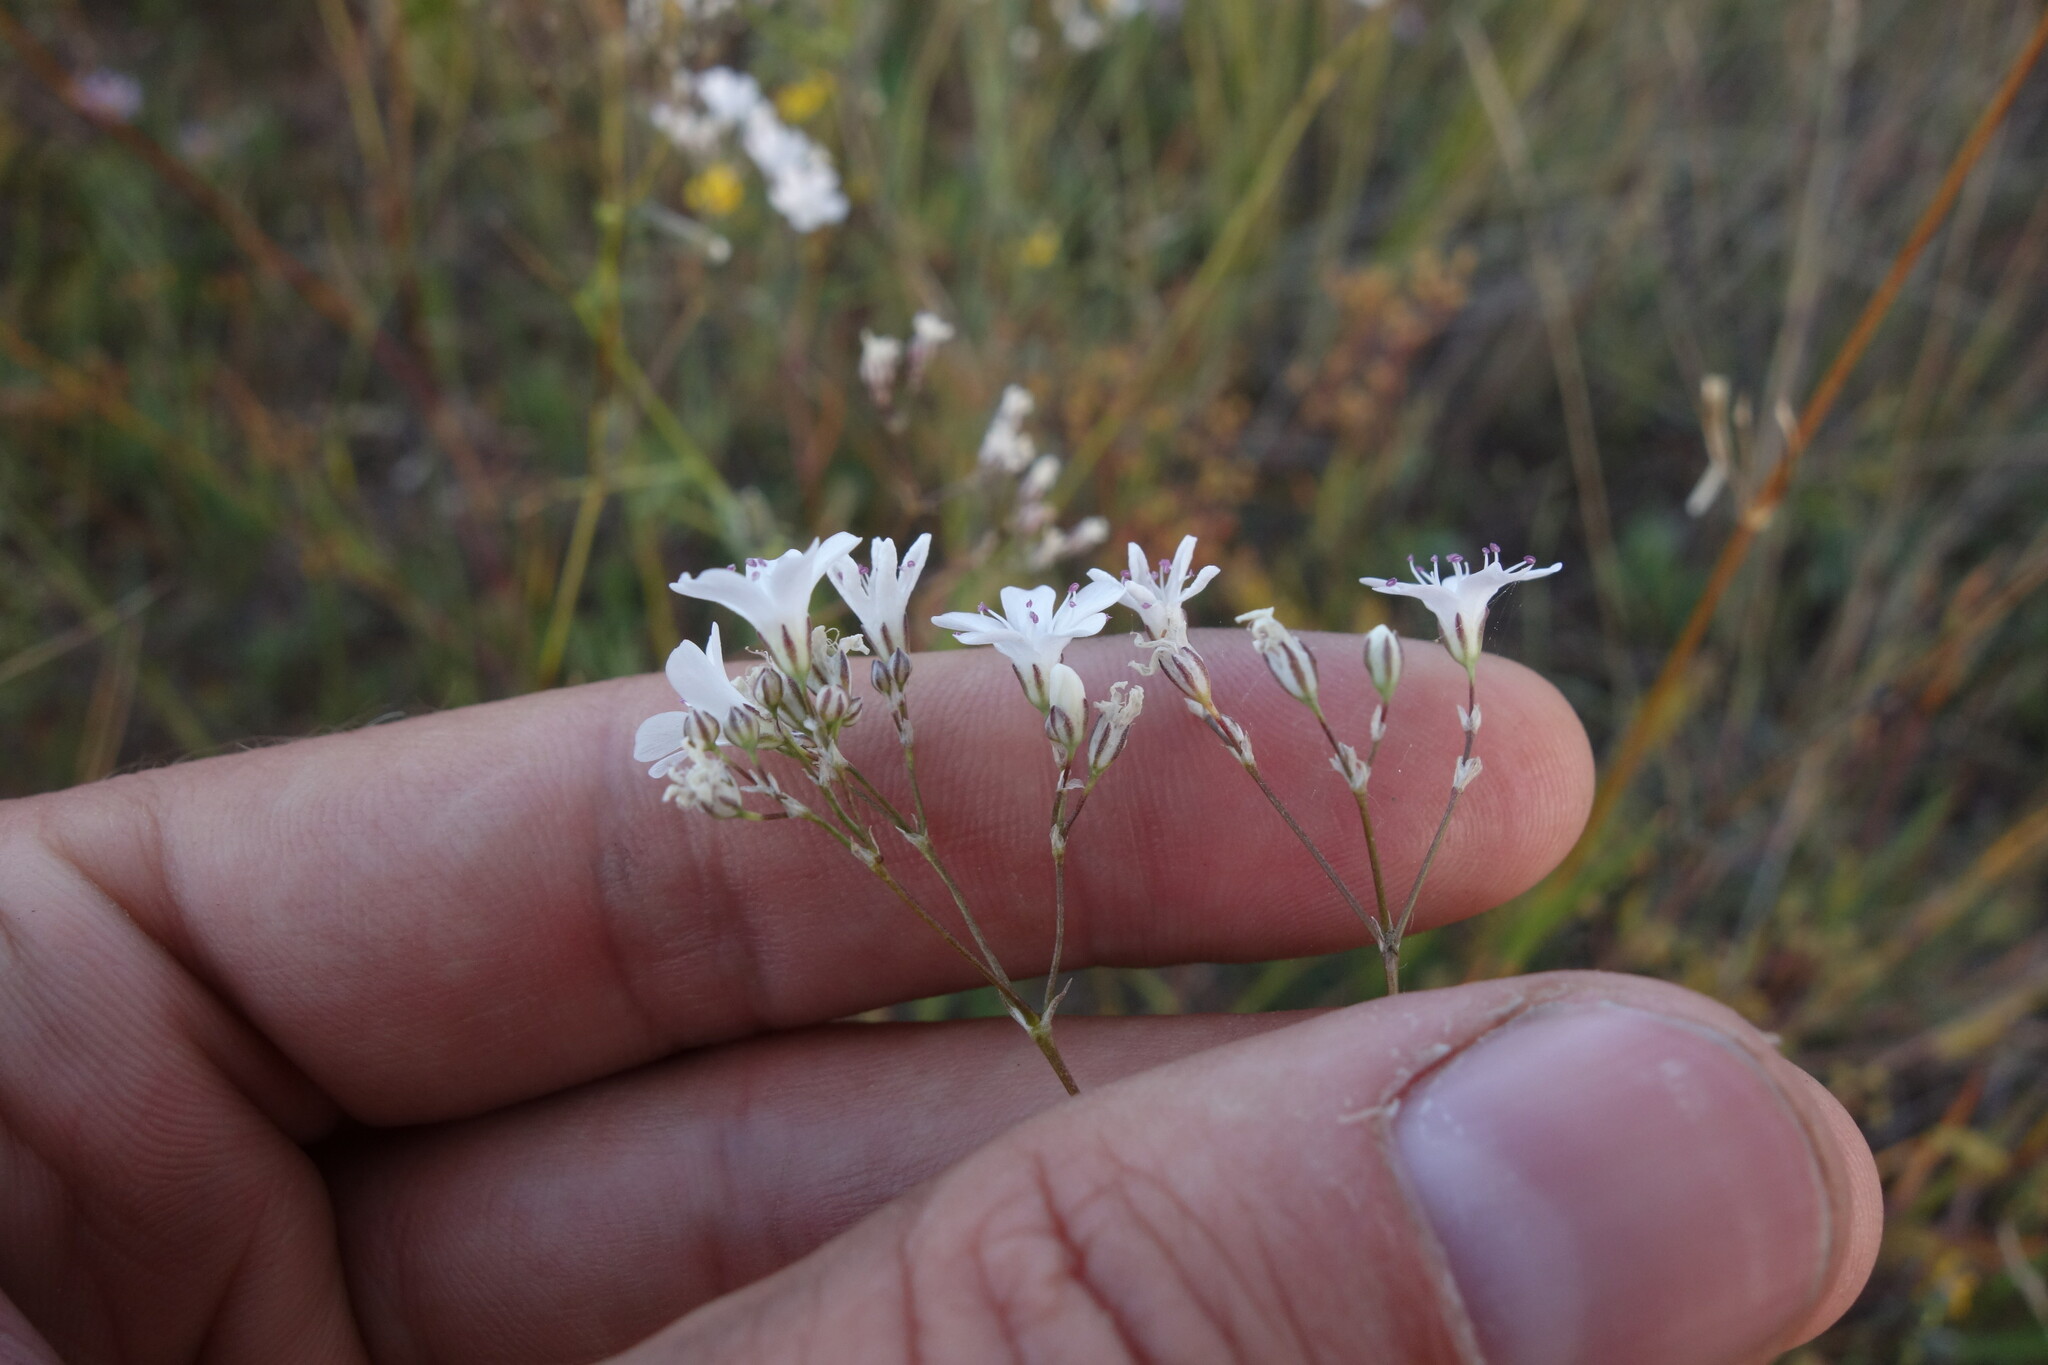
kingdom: Plantae
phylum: Tracheophyta
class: Magnoliopsida
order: Caryophyllales
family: Caryophyllaceae
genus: Gypsophila
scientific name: Gypsophila davurica
